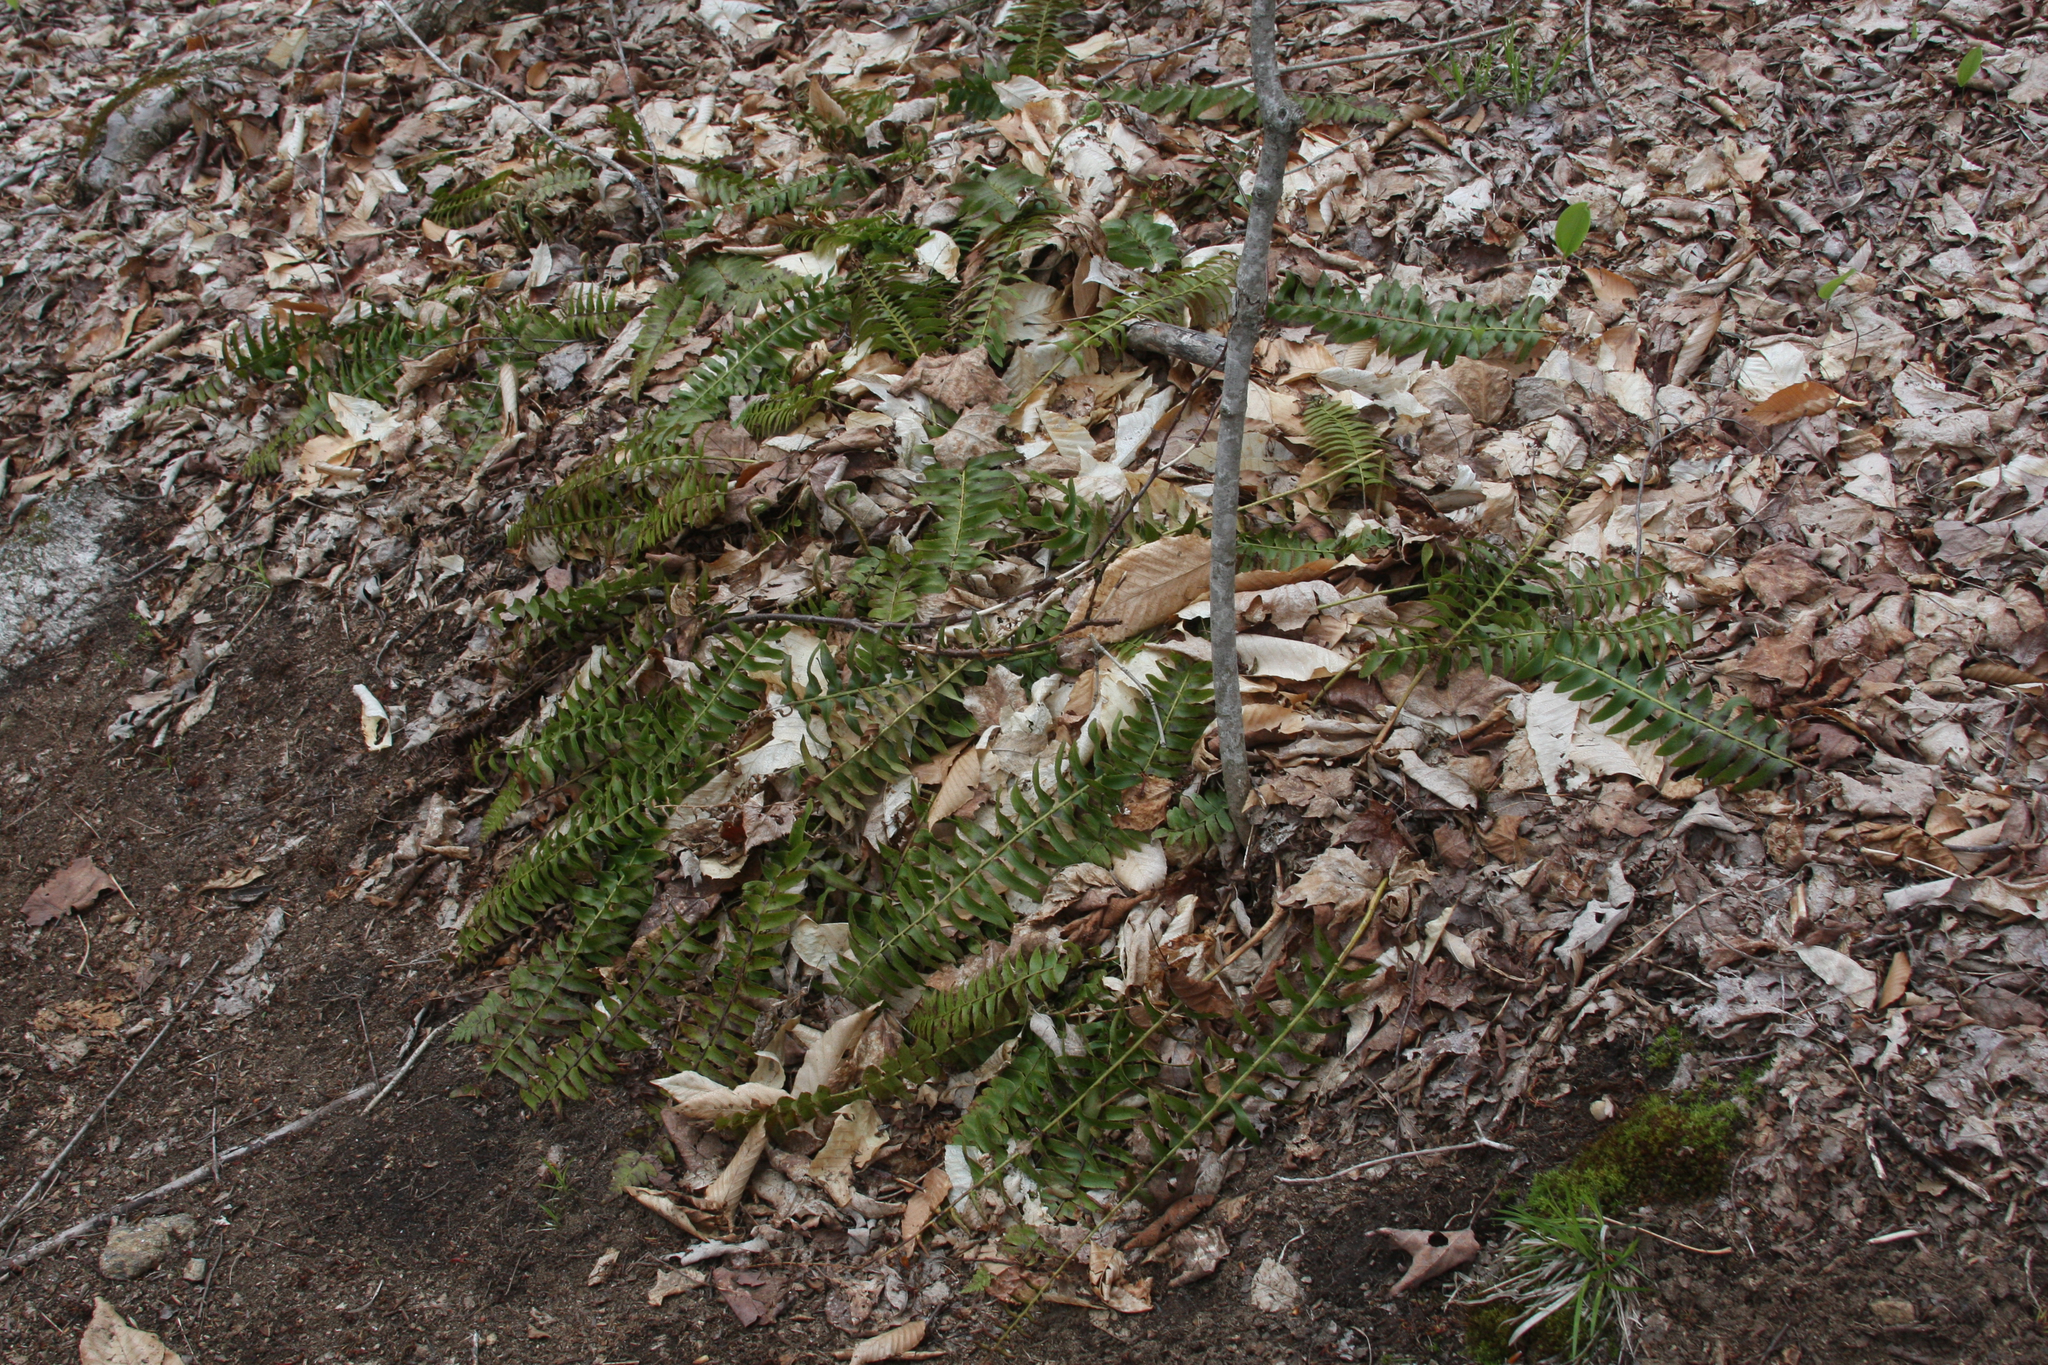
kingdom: Plantae
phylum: Tracheophyta
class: Polypodiopsida
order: Polypodiales
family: Dryopteridaceae
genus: Polystichum
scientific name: Polystichum acrostichoides
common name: Christmas fern
